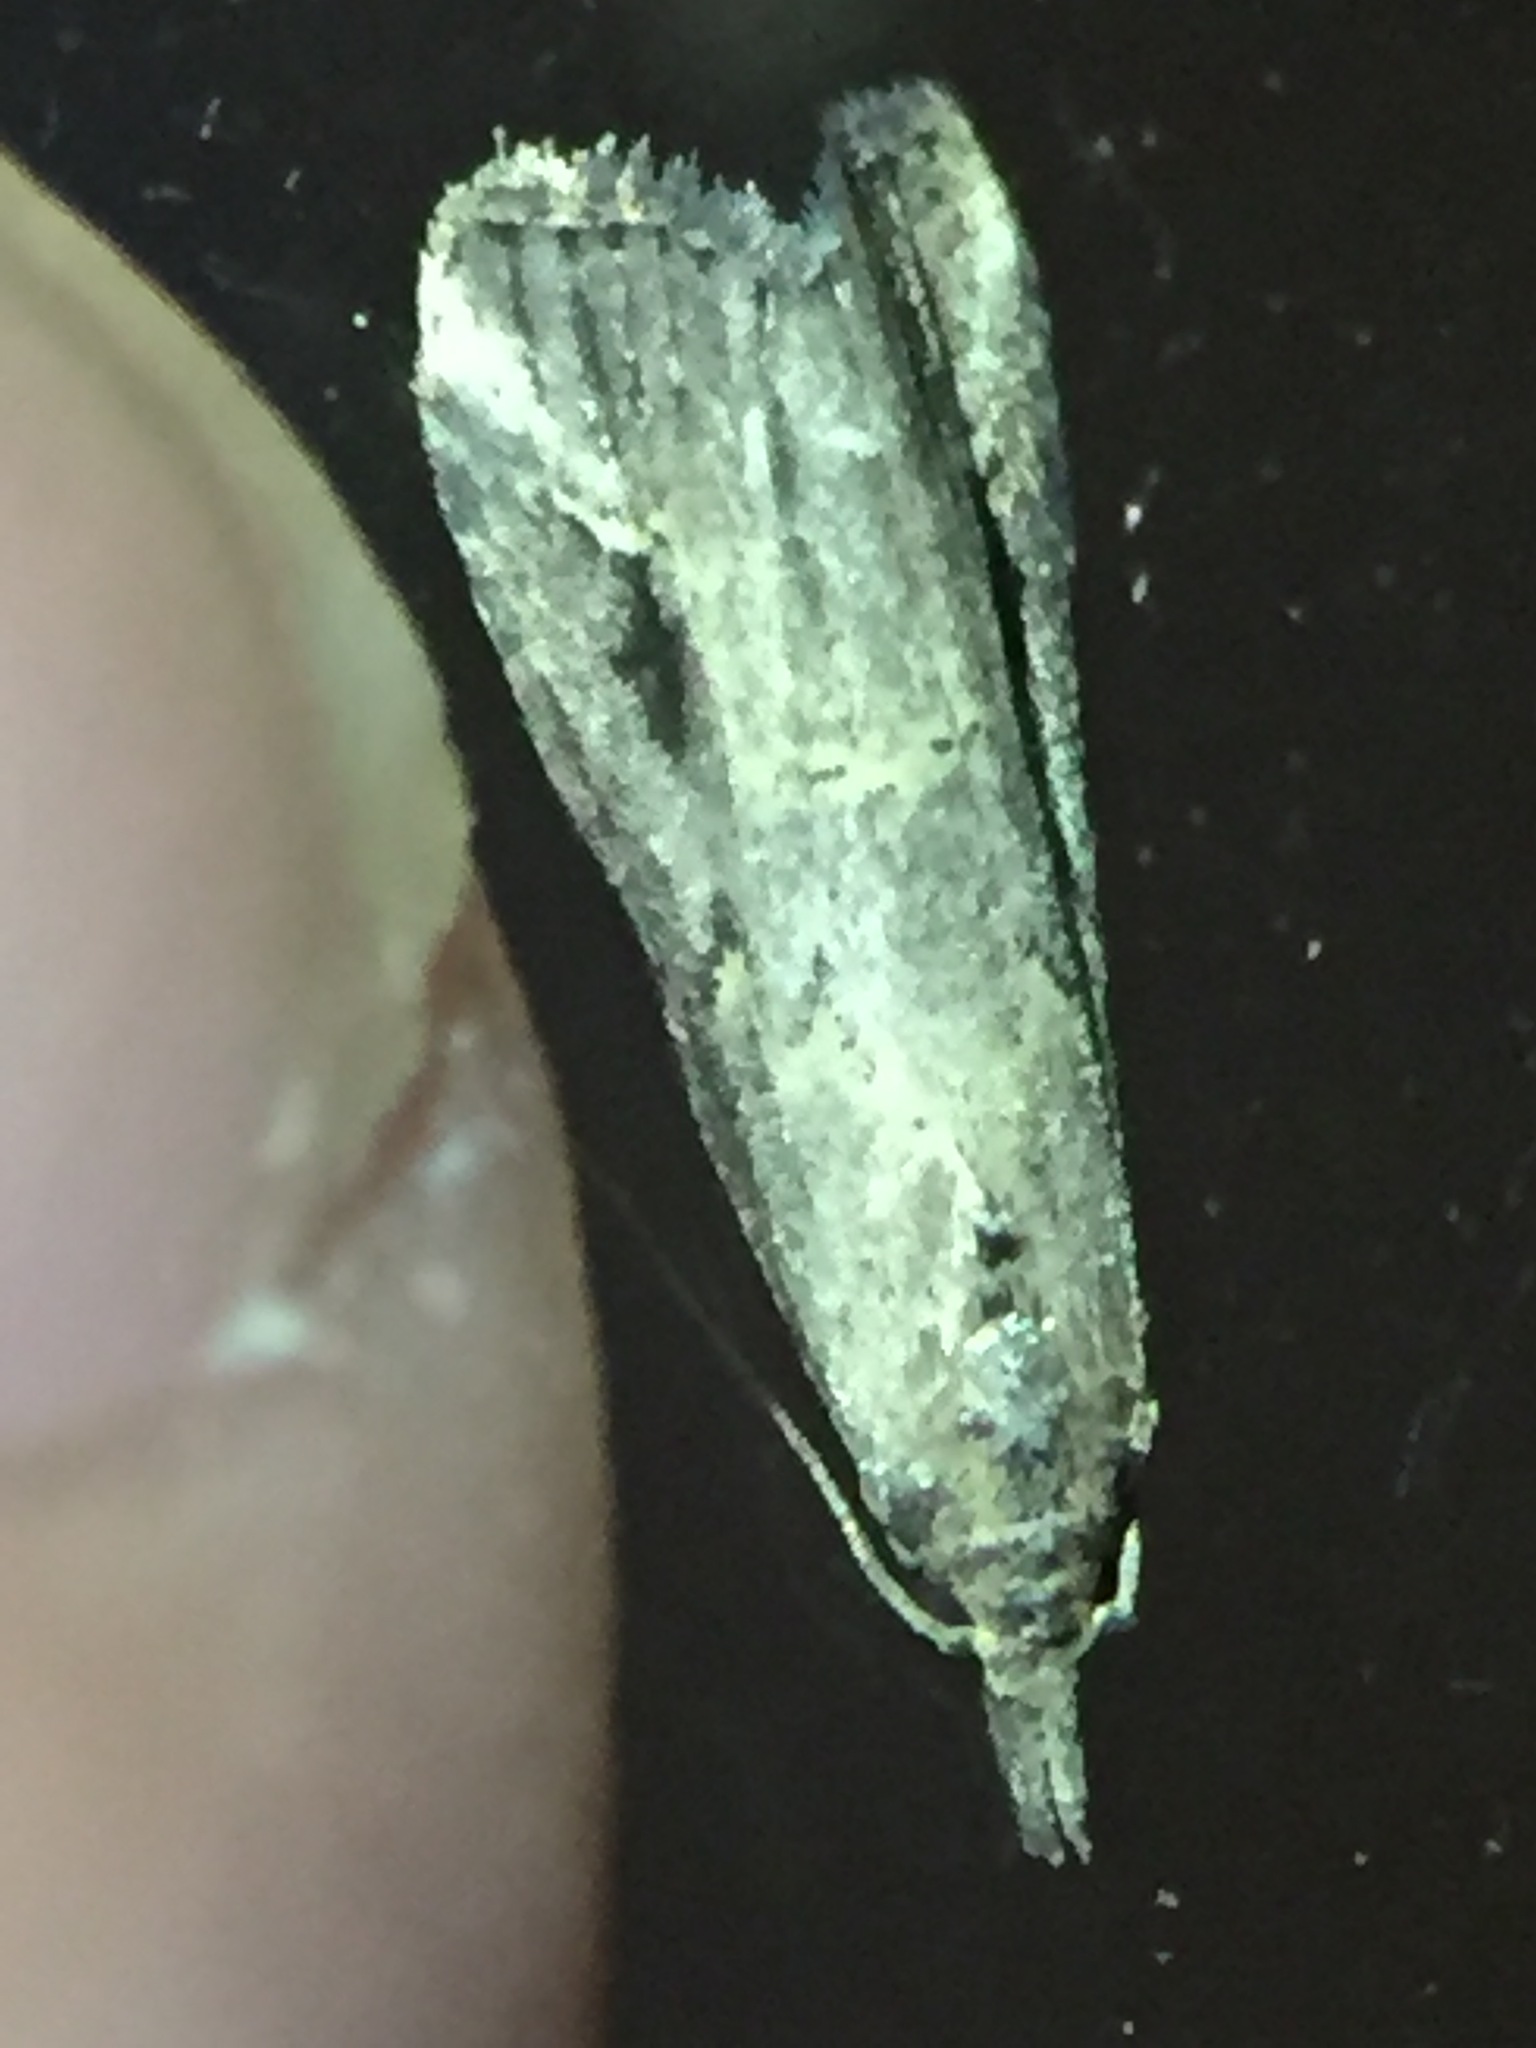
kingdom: Animalia
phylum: Arthropoda
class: Insecta
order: Lepidoptera
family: Erebidae
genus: Schrankia
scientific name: Schrankia costaestrigalis
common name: Pinion-streaked snout
